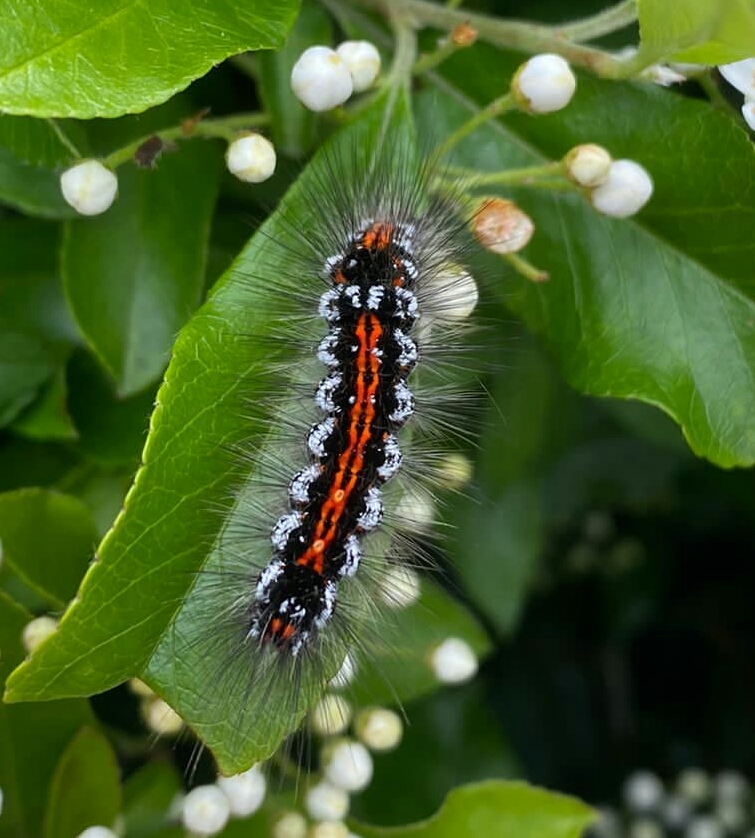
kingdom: Animalia
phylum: Arthropoda
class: Insecta
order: Lepidoptera
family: Erebidae
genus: Sphrageidus
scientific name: Sphrageidus similis
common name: Yellow-tail
